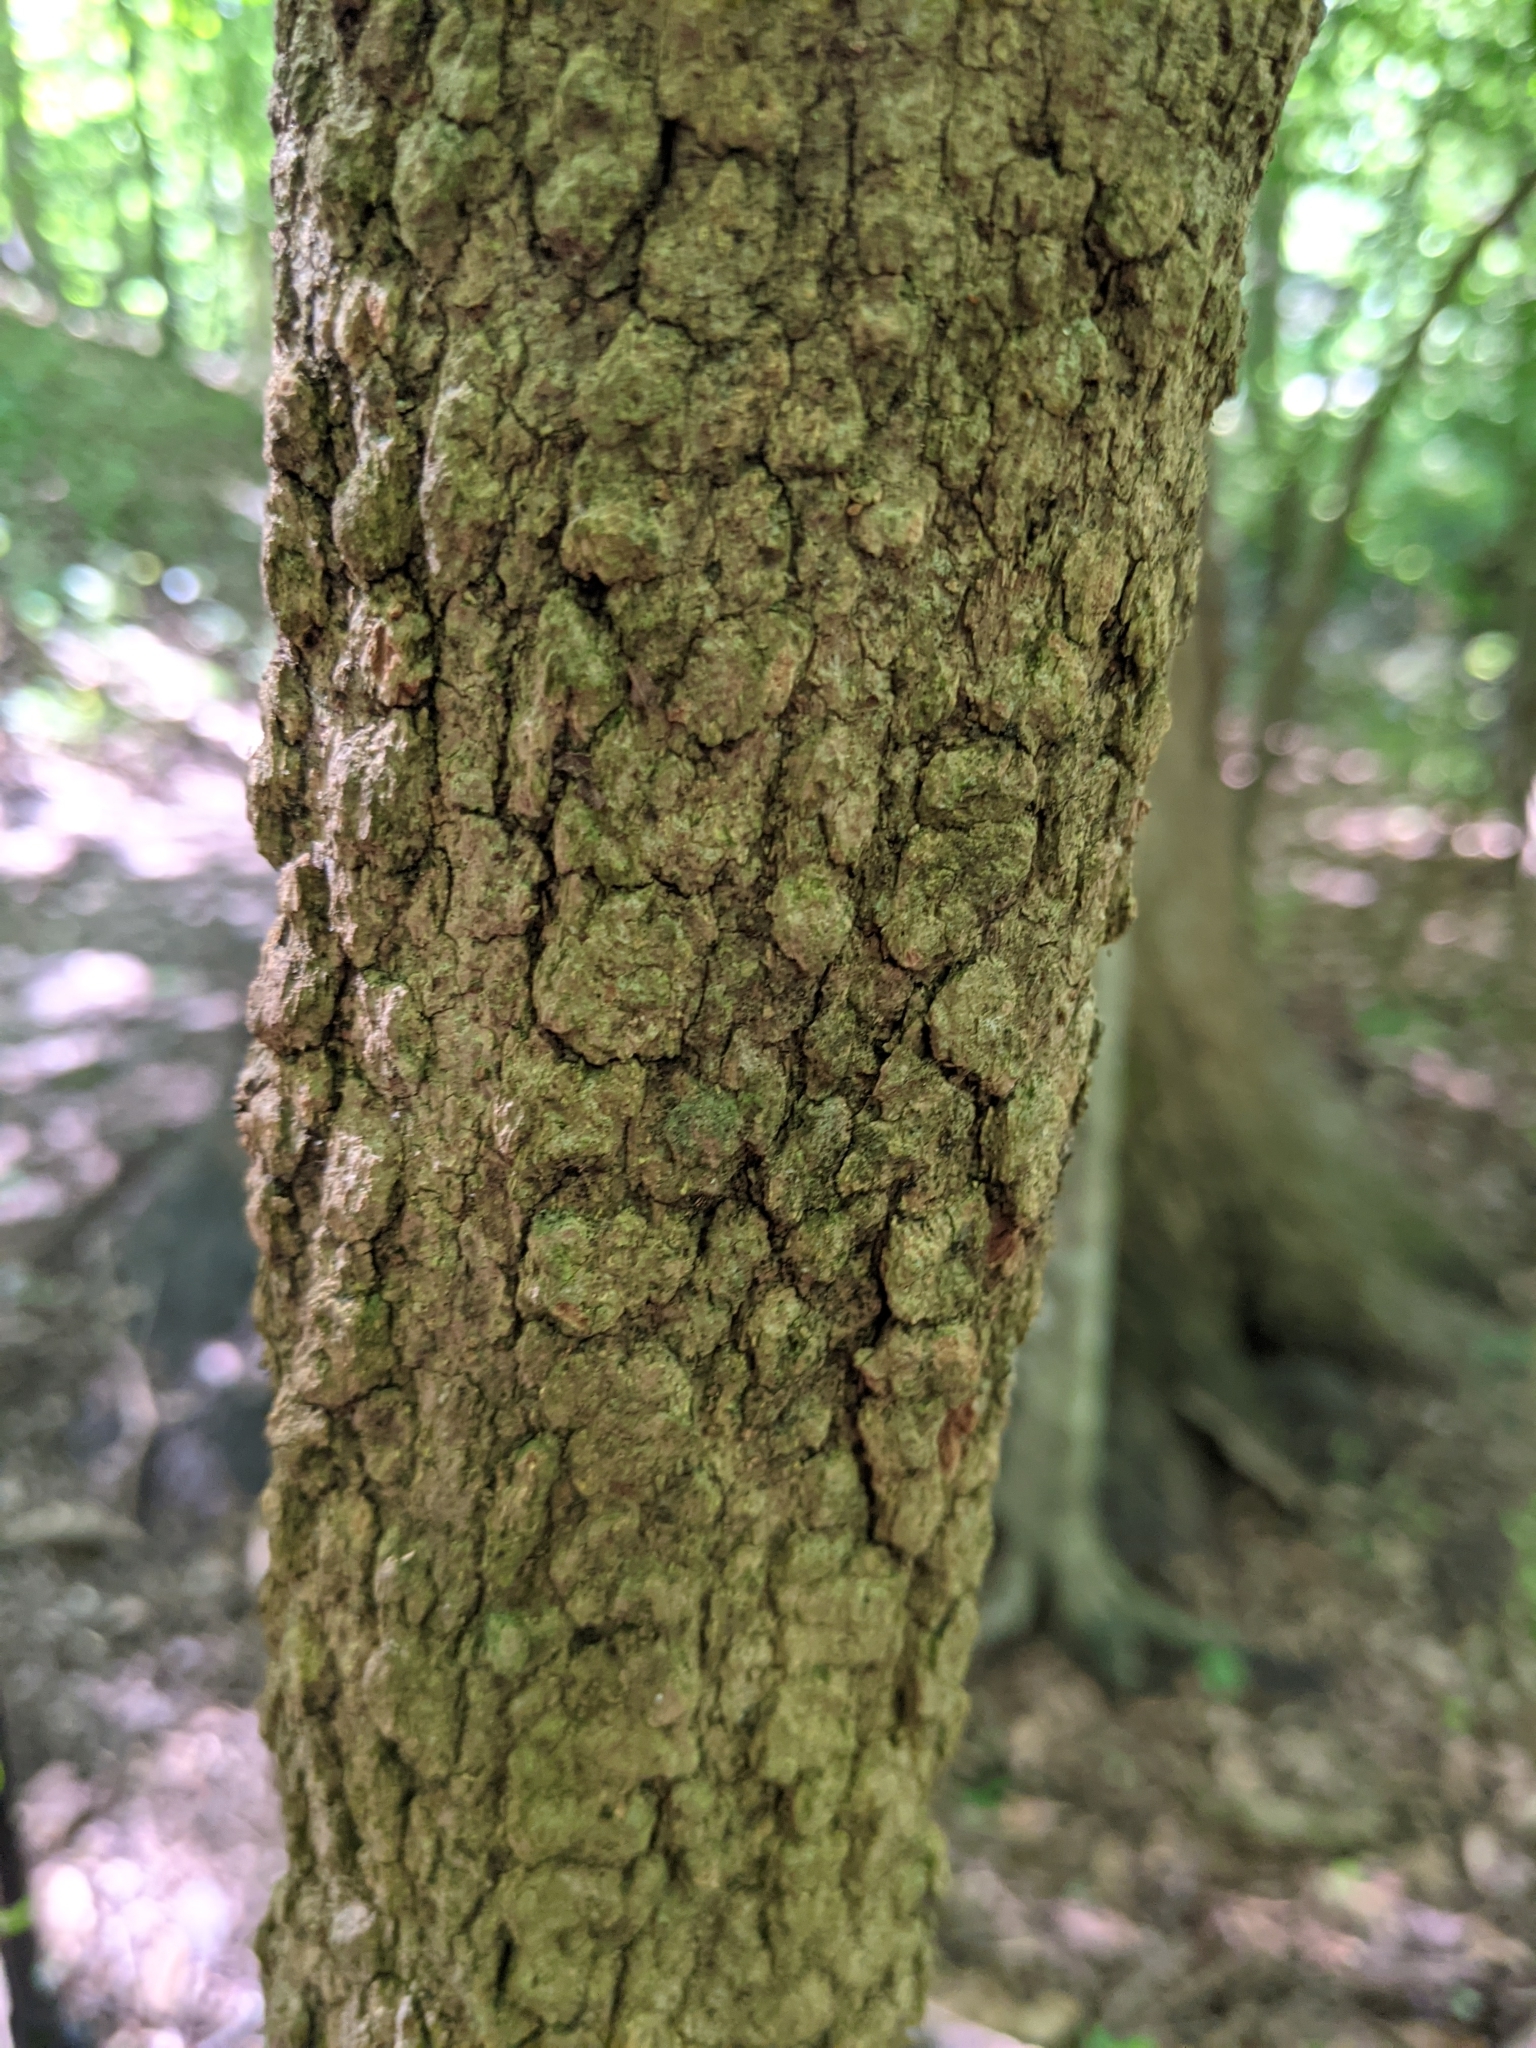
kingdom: Plantae
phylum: Tracheophyta
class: Magnoliopsida
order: Dipsacales
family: Viburnaceae
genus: Viburnum
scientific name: Viburnum prunifolium
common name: Black haw
